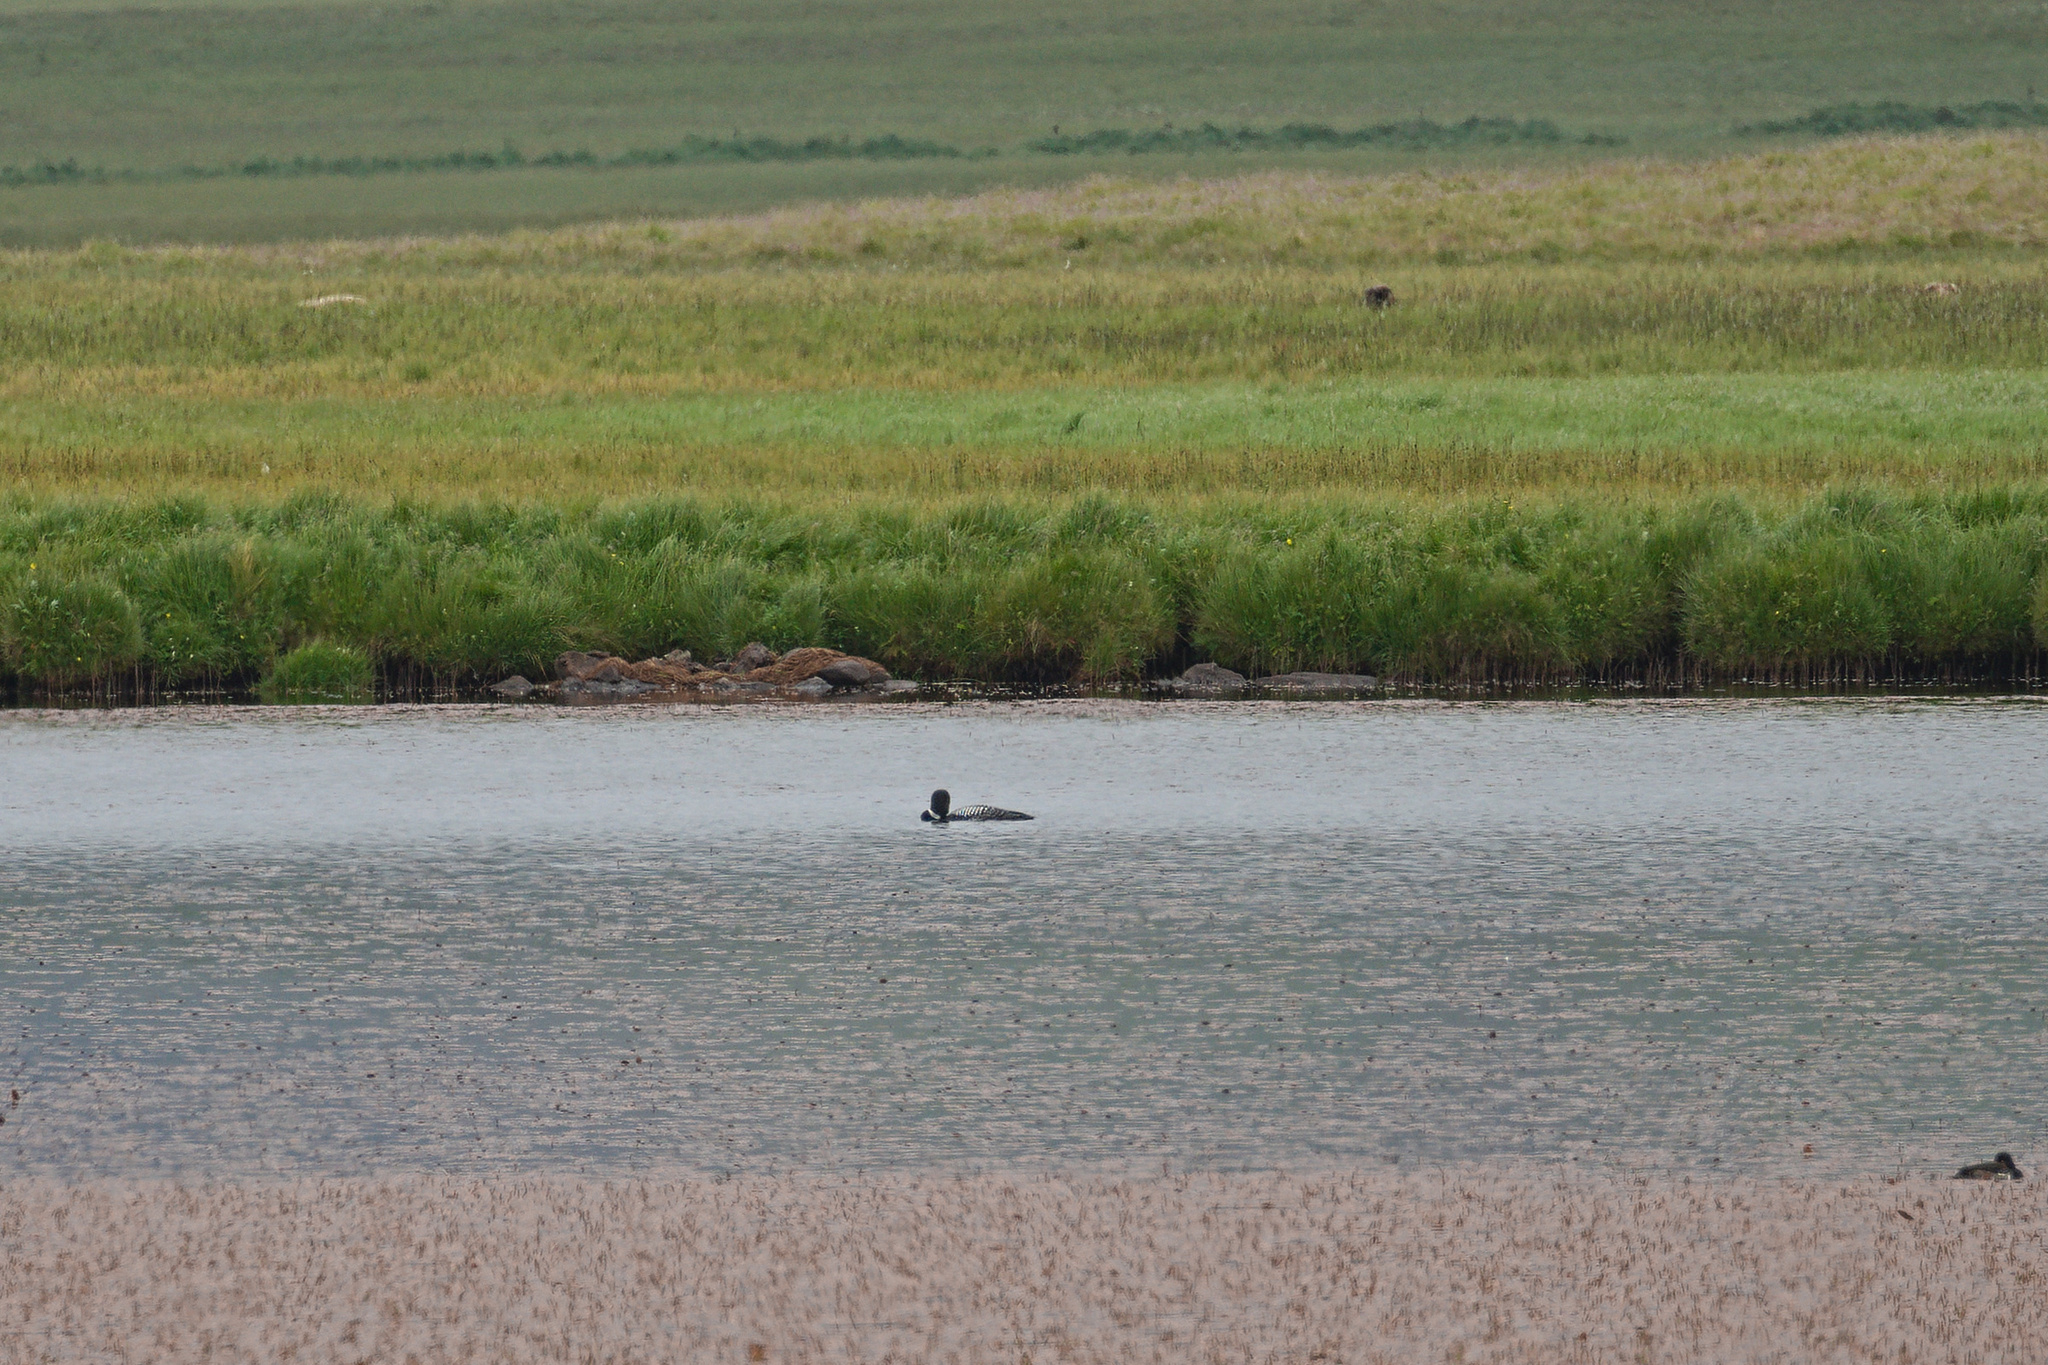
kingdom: Animalia
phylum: Chordata
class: Aves
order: Gaviiformes
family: Gaviidae
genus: Gavia
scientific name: Gavia immer
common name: Common loon
